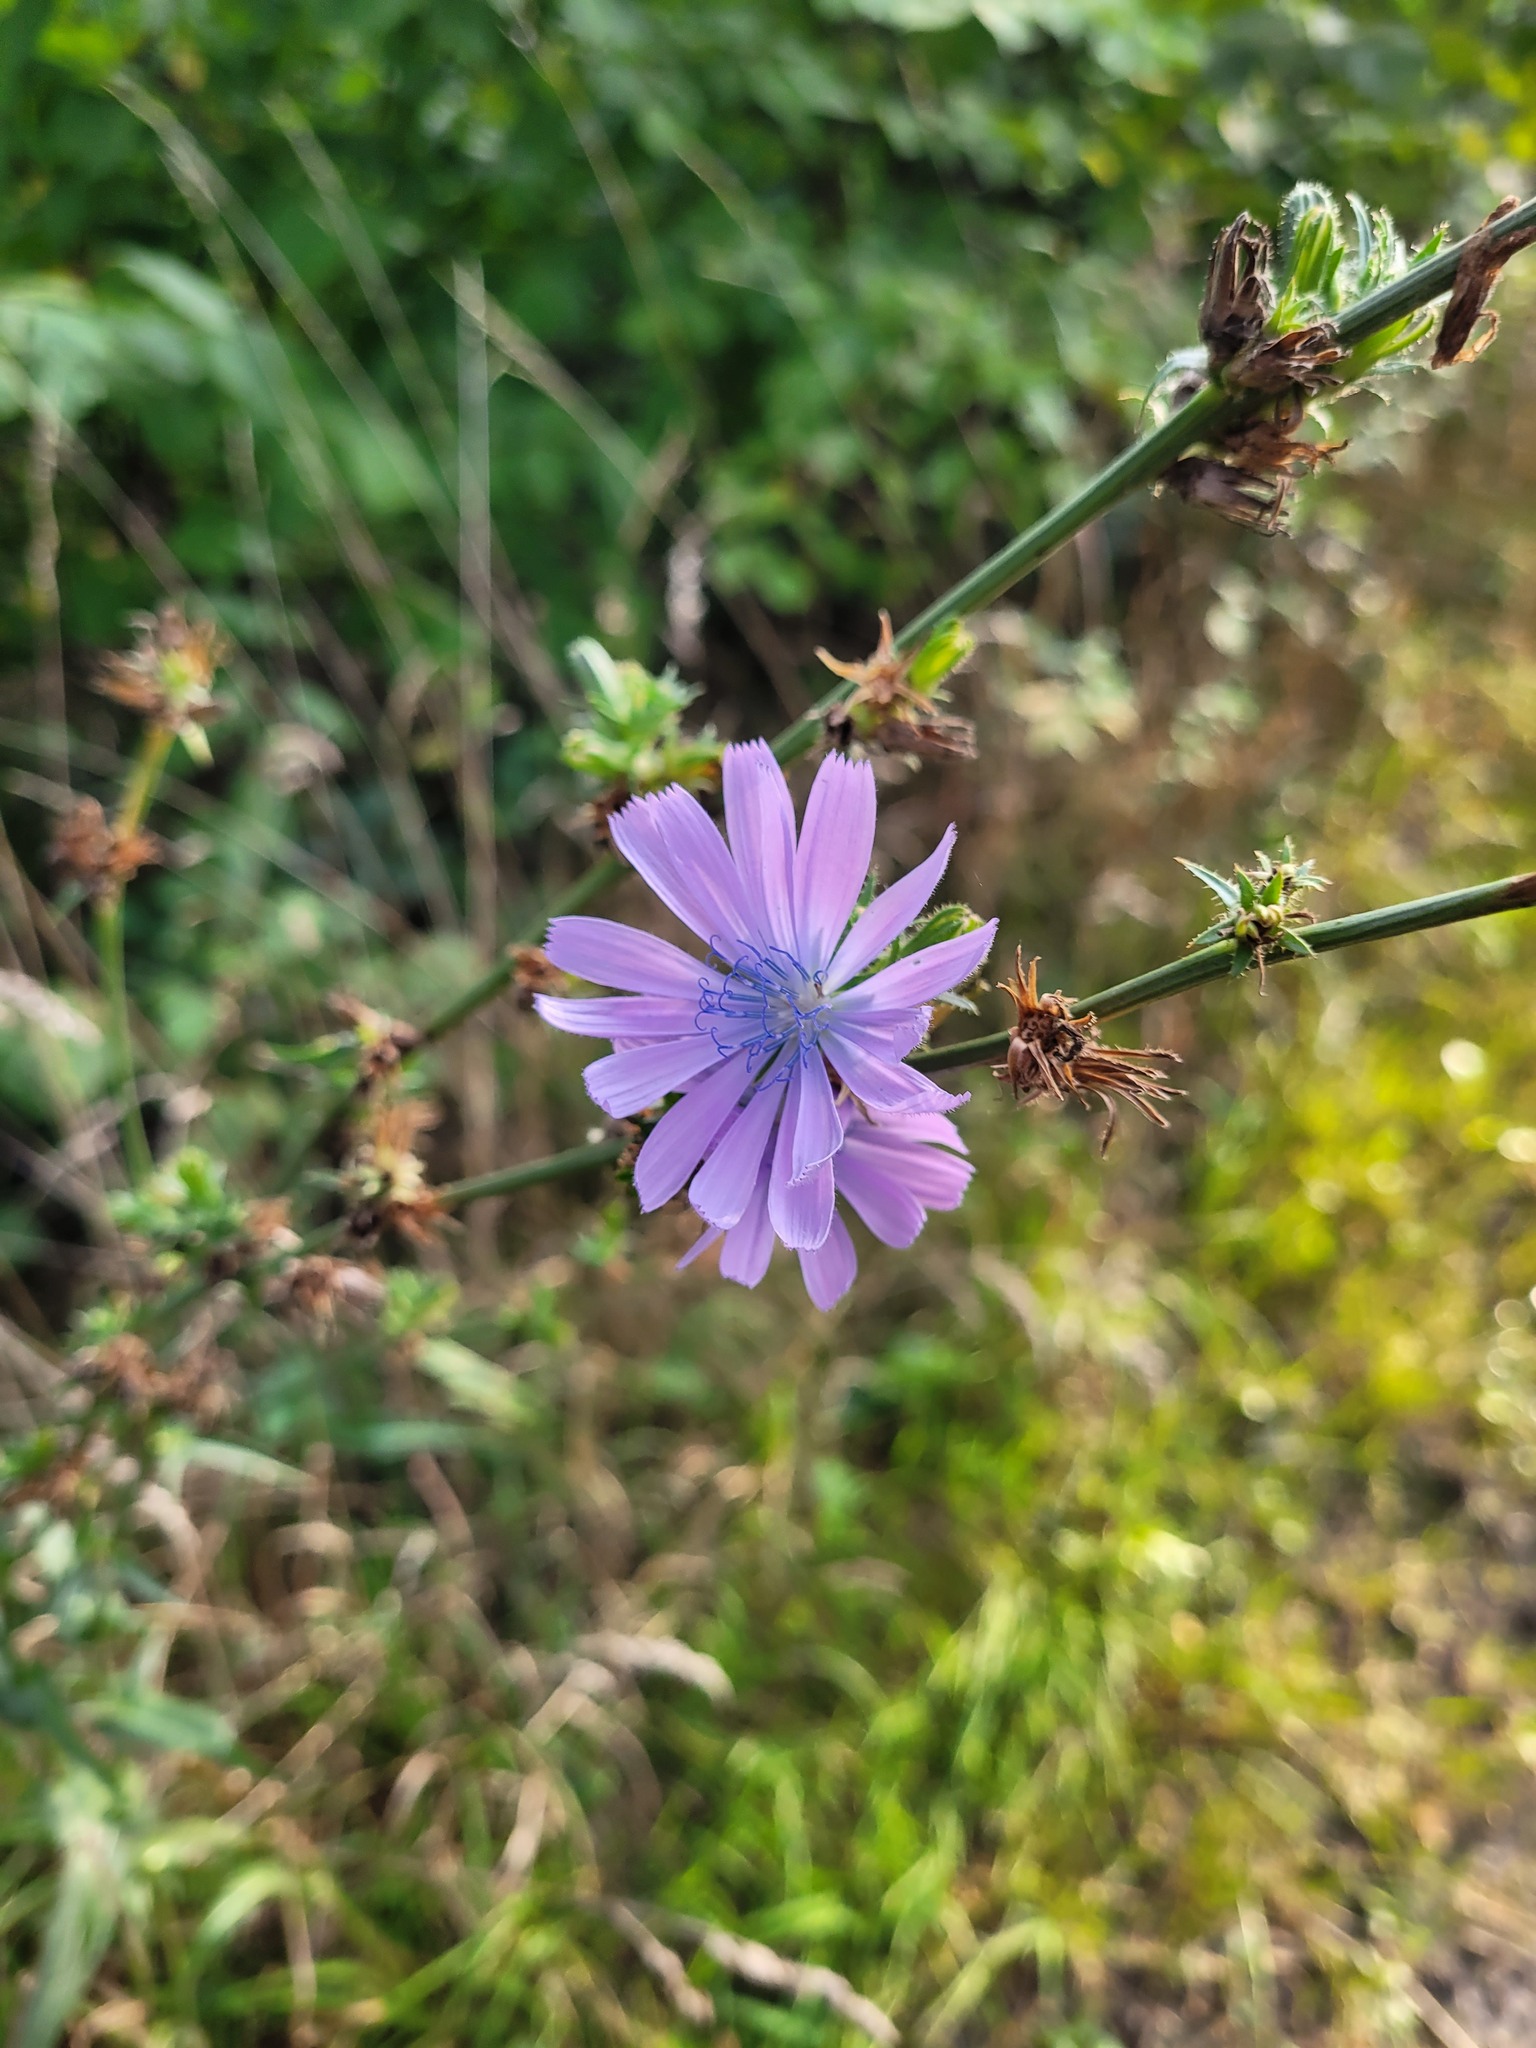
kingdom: Plantae
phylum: Tracheophyta
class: Magnoliopsida
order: Asterales
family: Asteraceae
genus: Cichorium
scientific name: Cichorium intybus
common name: Chicory
